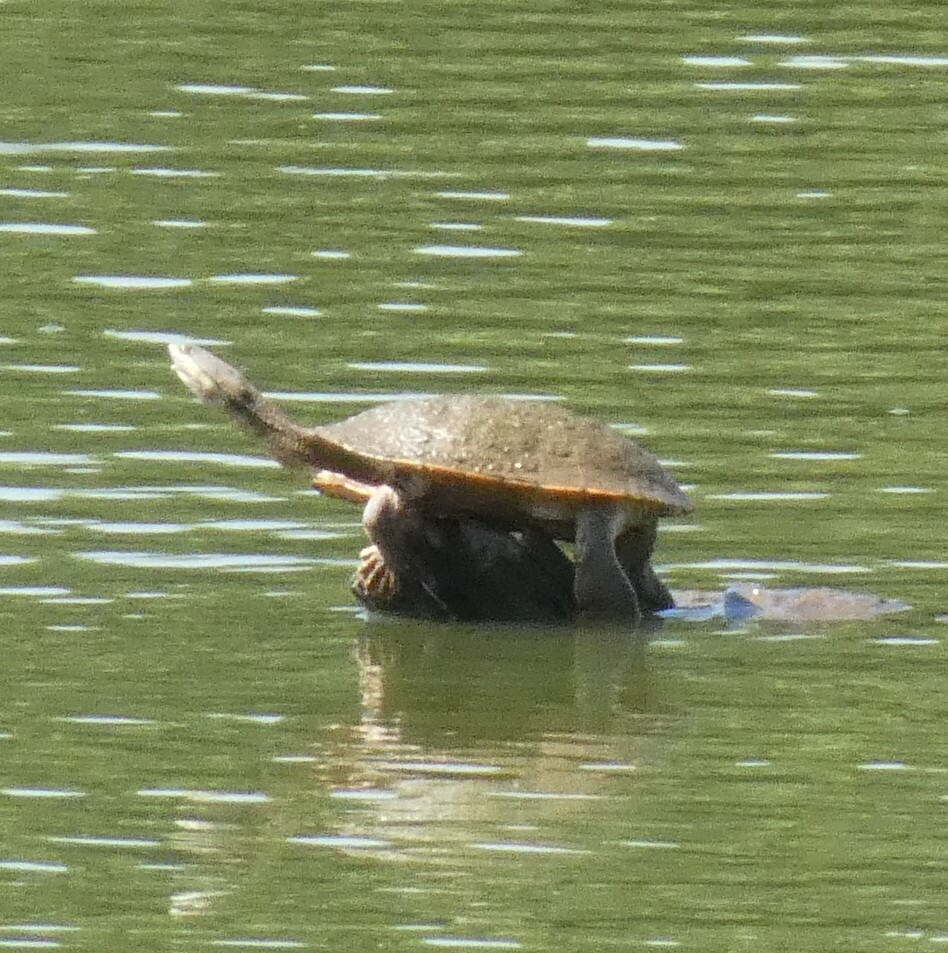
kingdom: Animalia
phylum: Chordata
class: Testudines
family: Chelidae
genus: Phrynops
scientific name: Phrynops geoffroanus
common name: Side-necked turtle of geoffroy
